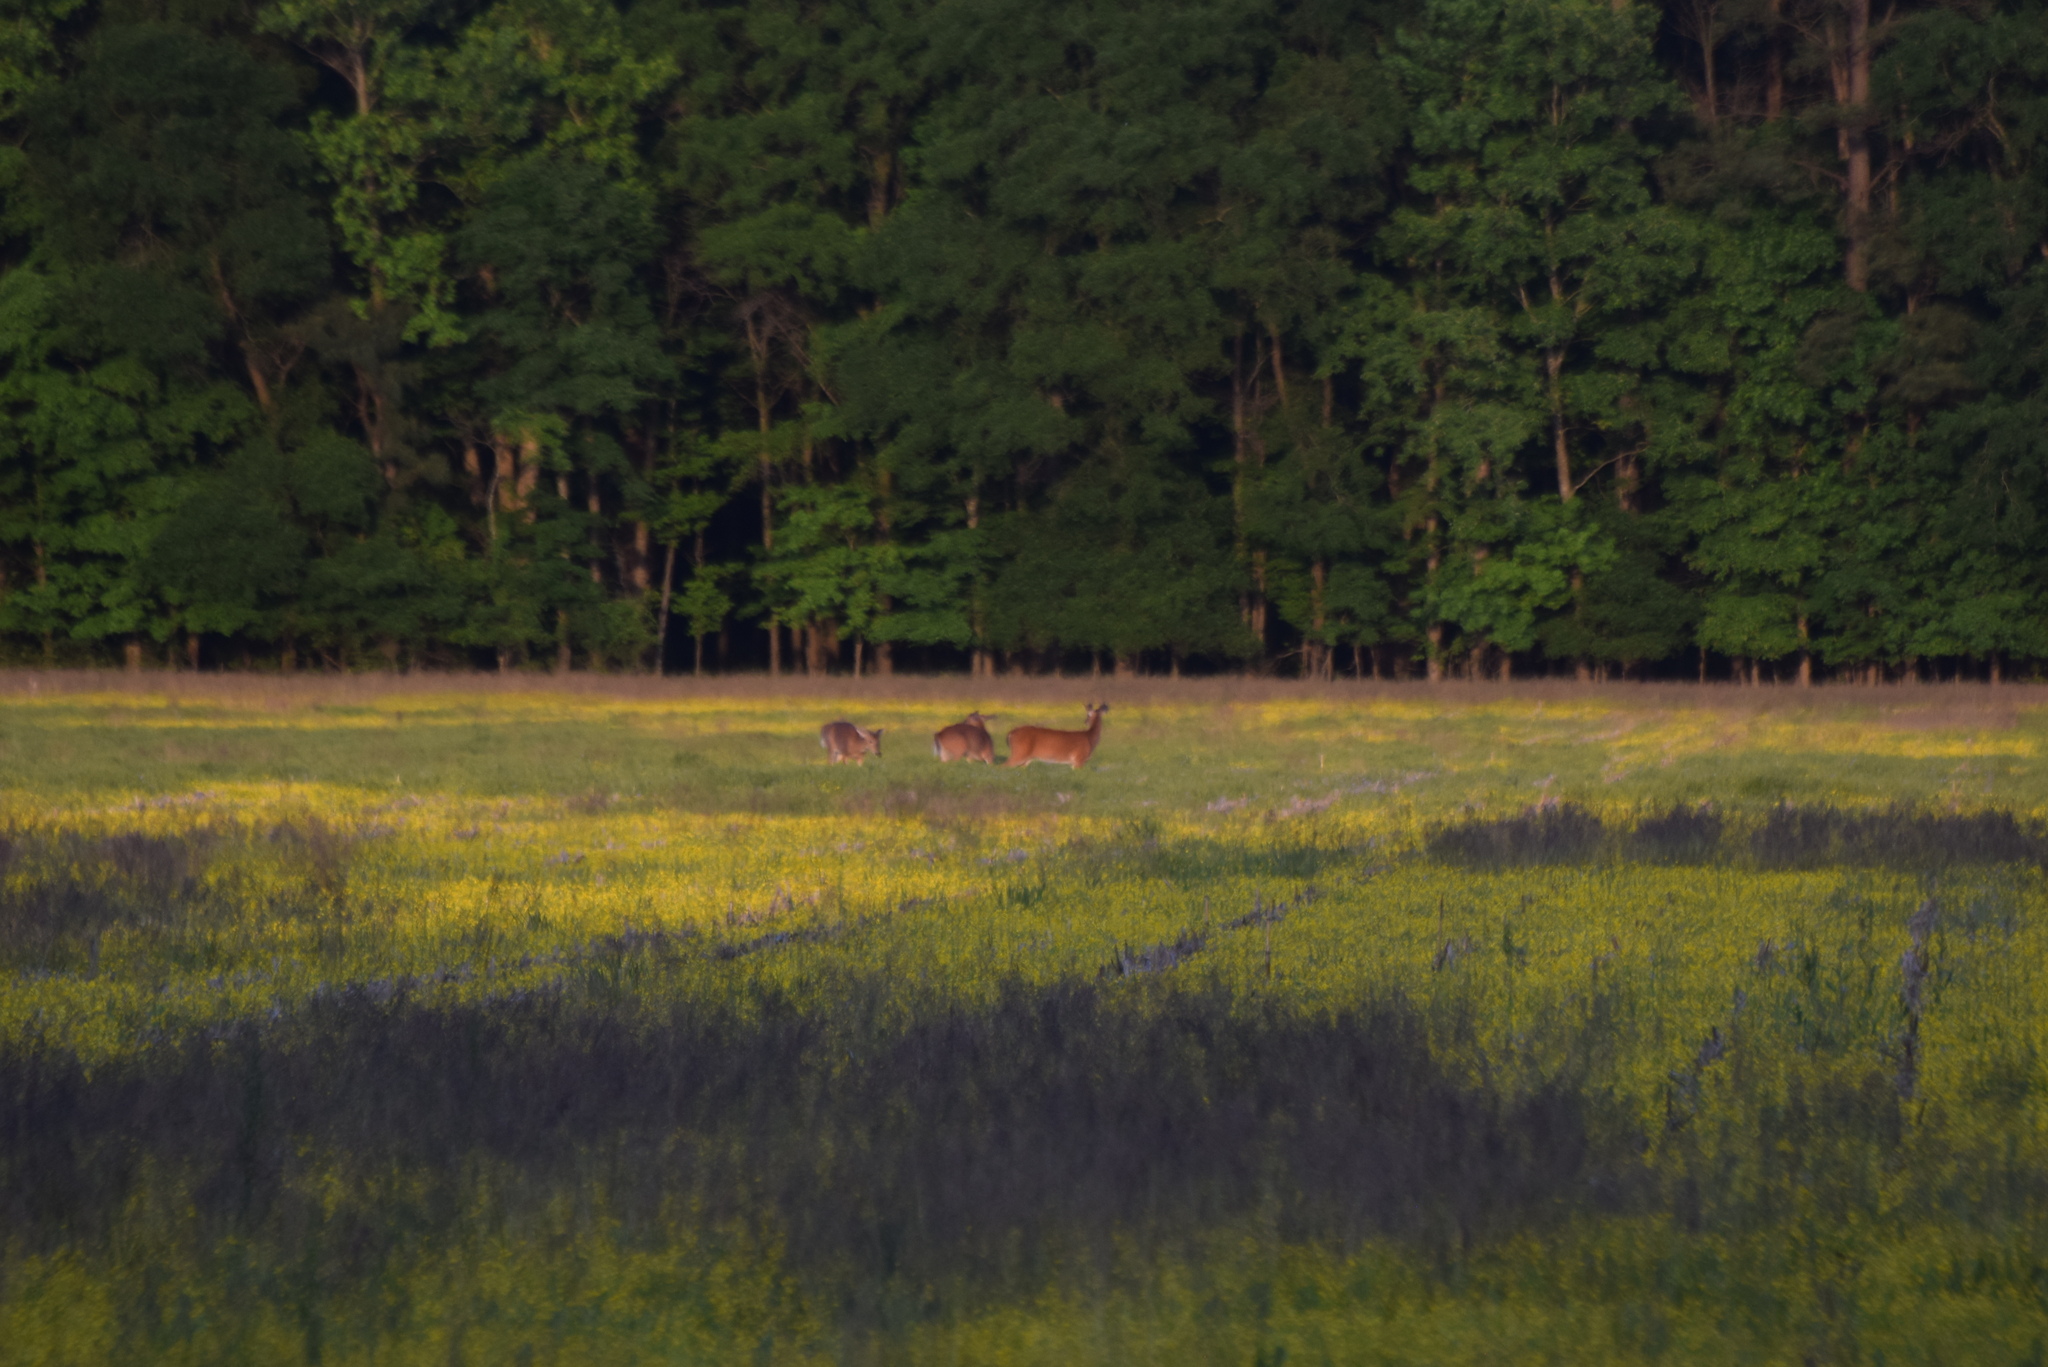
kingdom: Animalia
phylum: Chordata
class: Mammalia
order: Artiodactyla
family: Cervidae
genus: Odocoileus
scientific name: Odocoileus virginianus
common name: White-tailed deer
